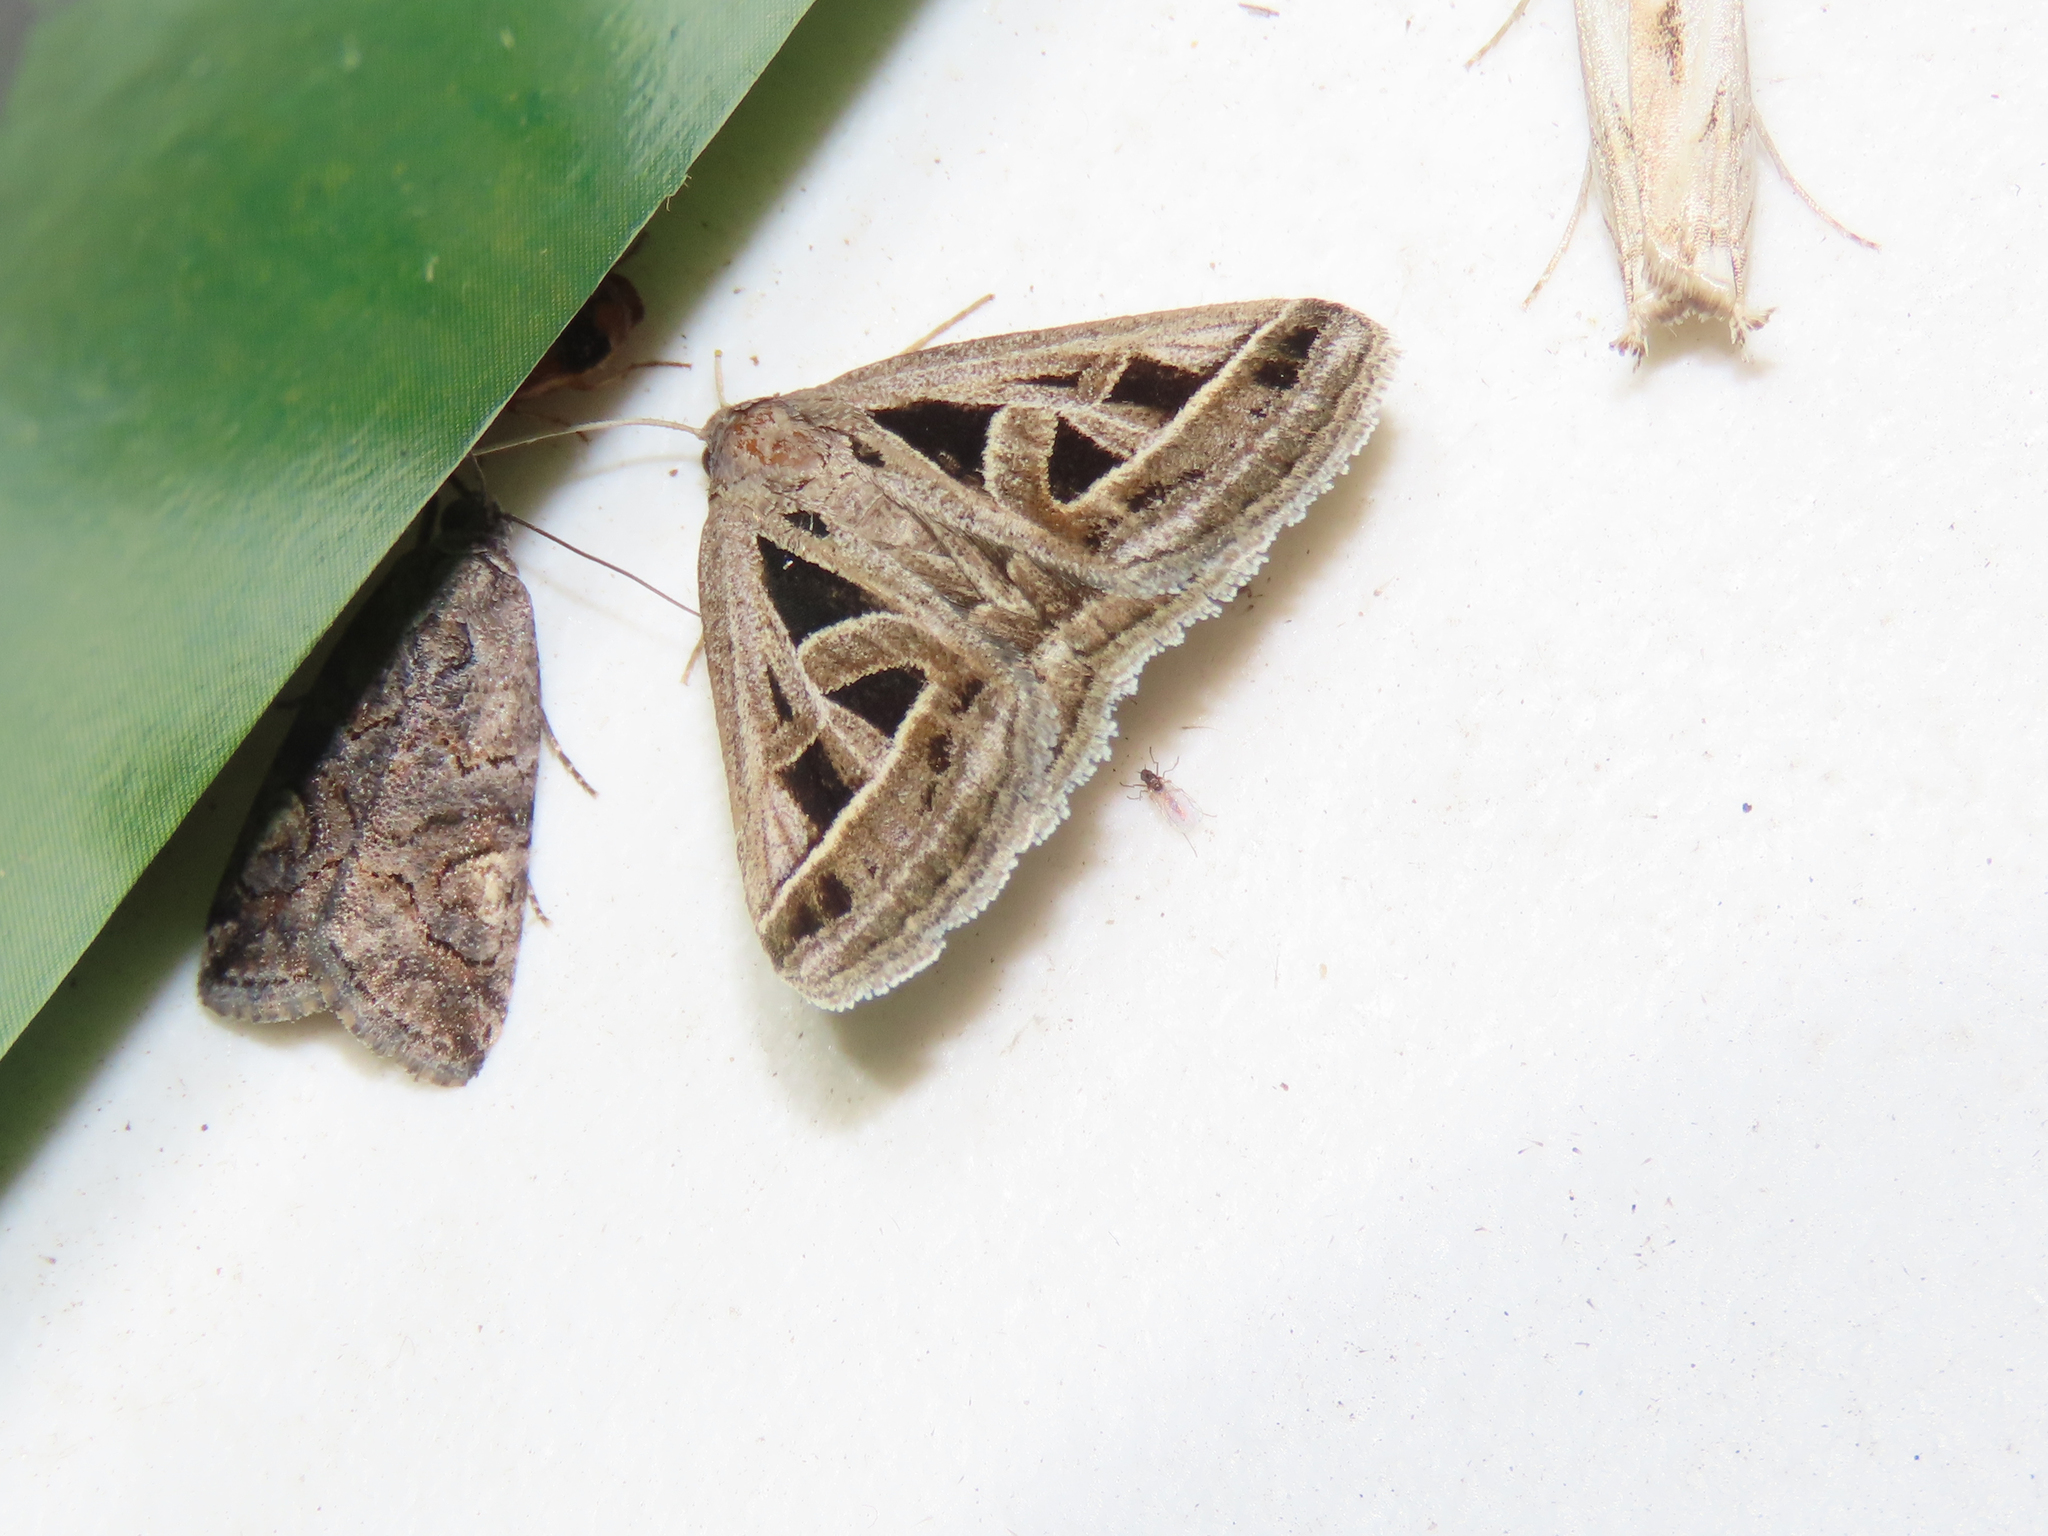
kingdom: Animalia
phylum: Arthropoda
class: Insecta
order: Lepidoptera
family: Erebidae
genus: Callistege
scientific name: Callistege diagonalis
